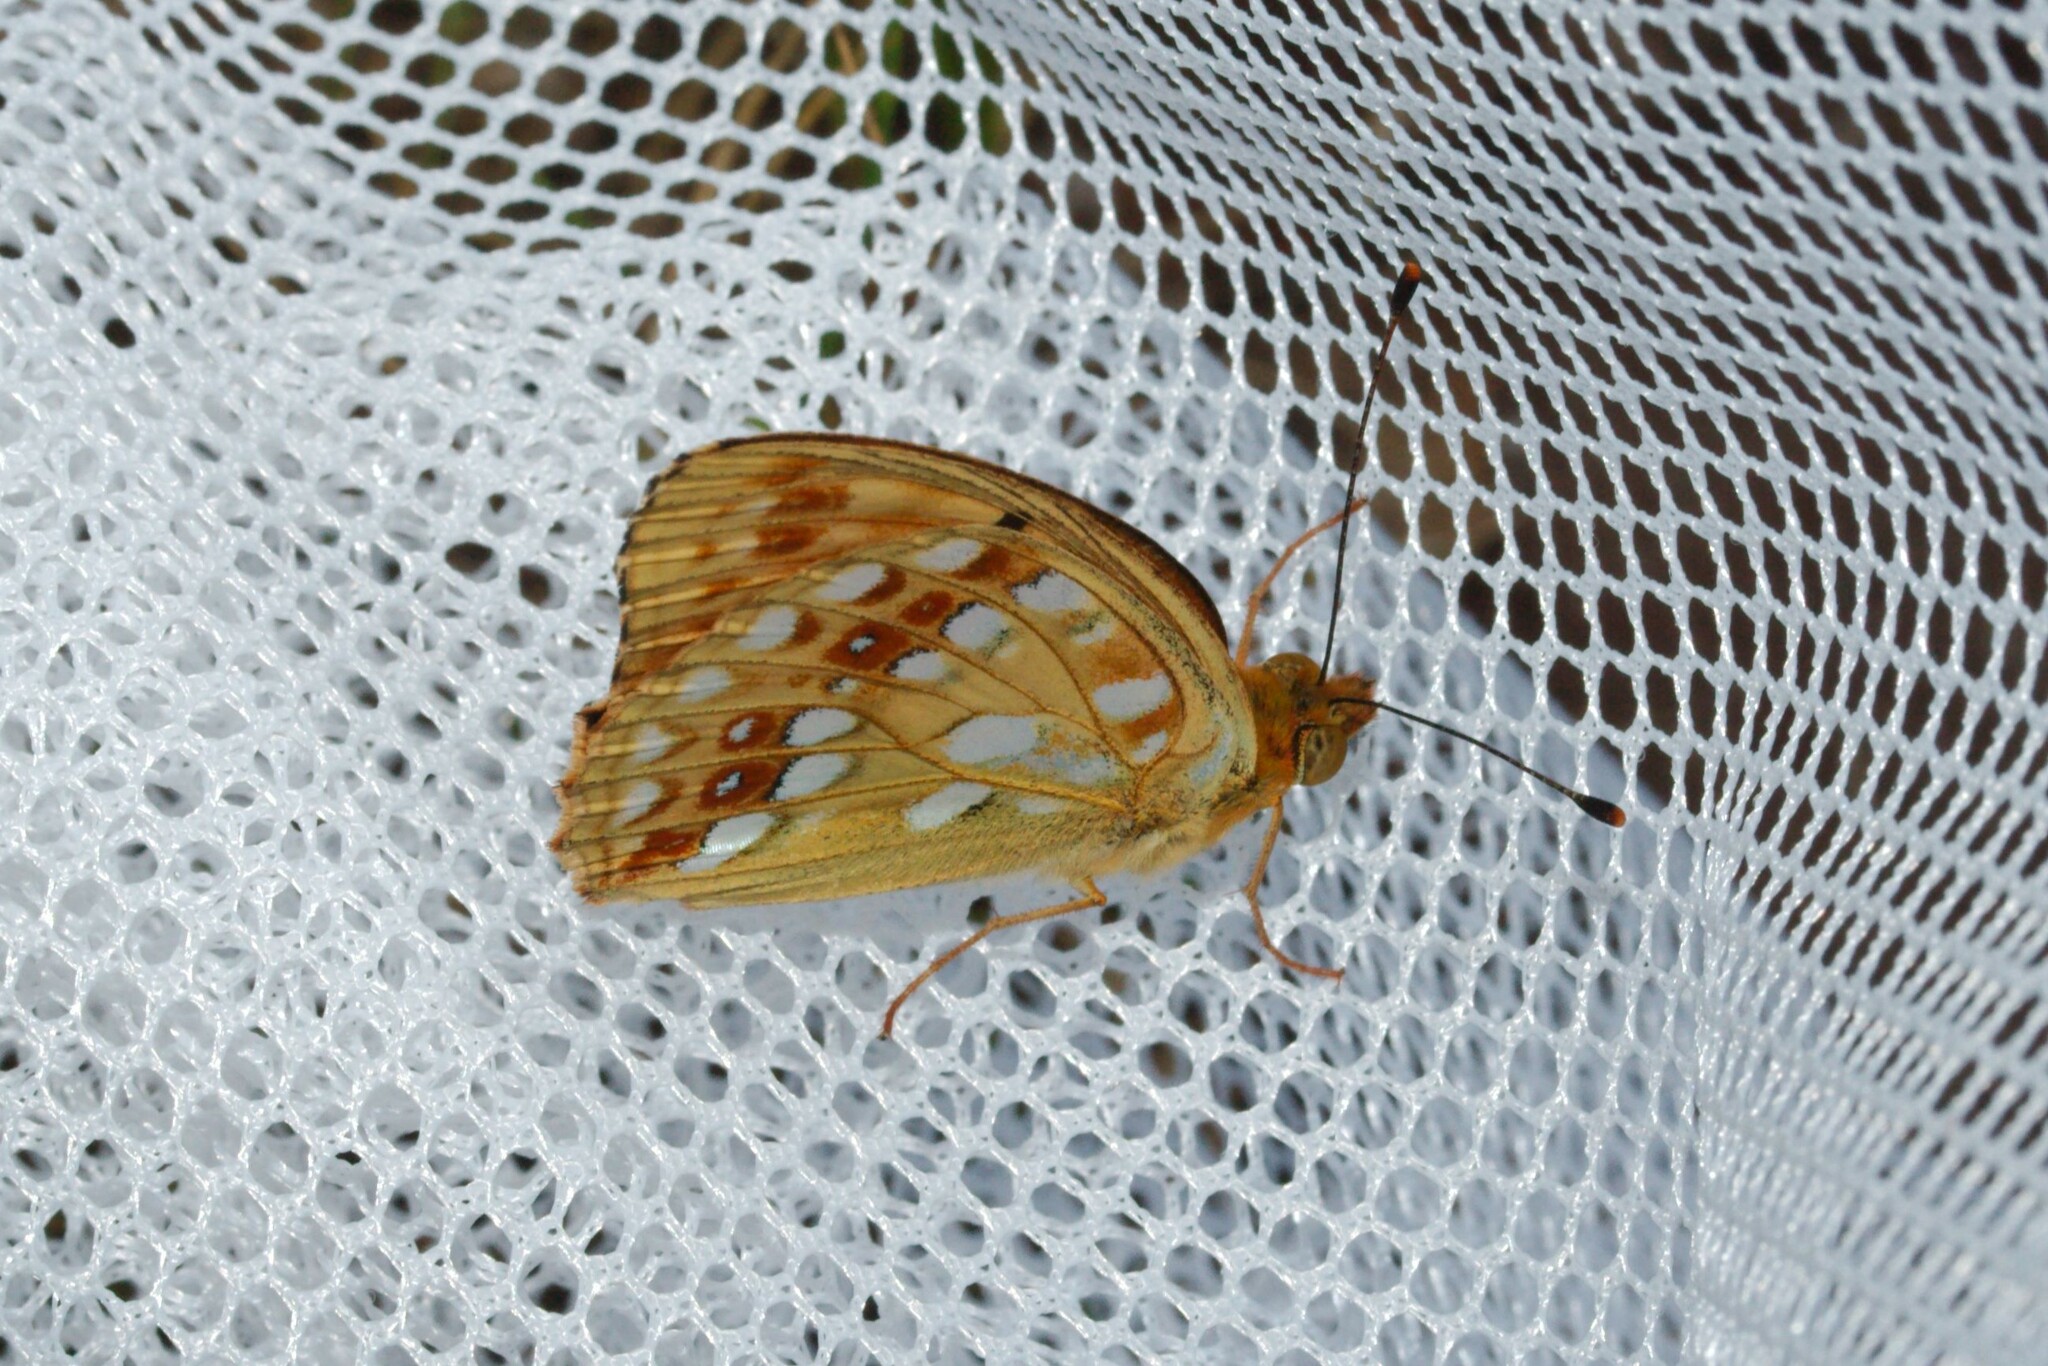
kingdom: Animalia
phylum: Arthropoda
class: Insecta
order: Lepidoptera
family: Nymphalidae
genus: Fabriciana
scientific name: Fabriciana adippe
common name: High brown fritillary
